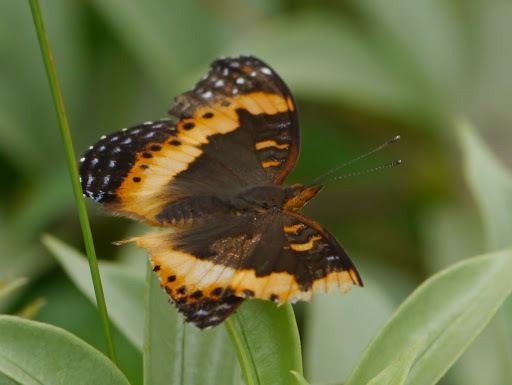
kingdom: Animalia
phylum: Arthropoda
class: Insecta
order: Lepidoptera
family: Nymphalidae
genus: Precis
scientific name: Precis pelarga
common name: Fashion commodore
